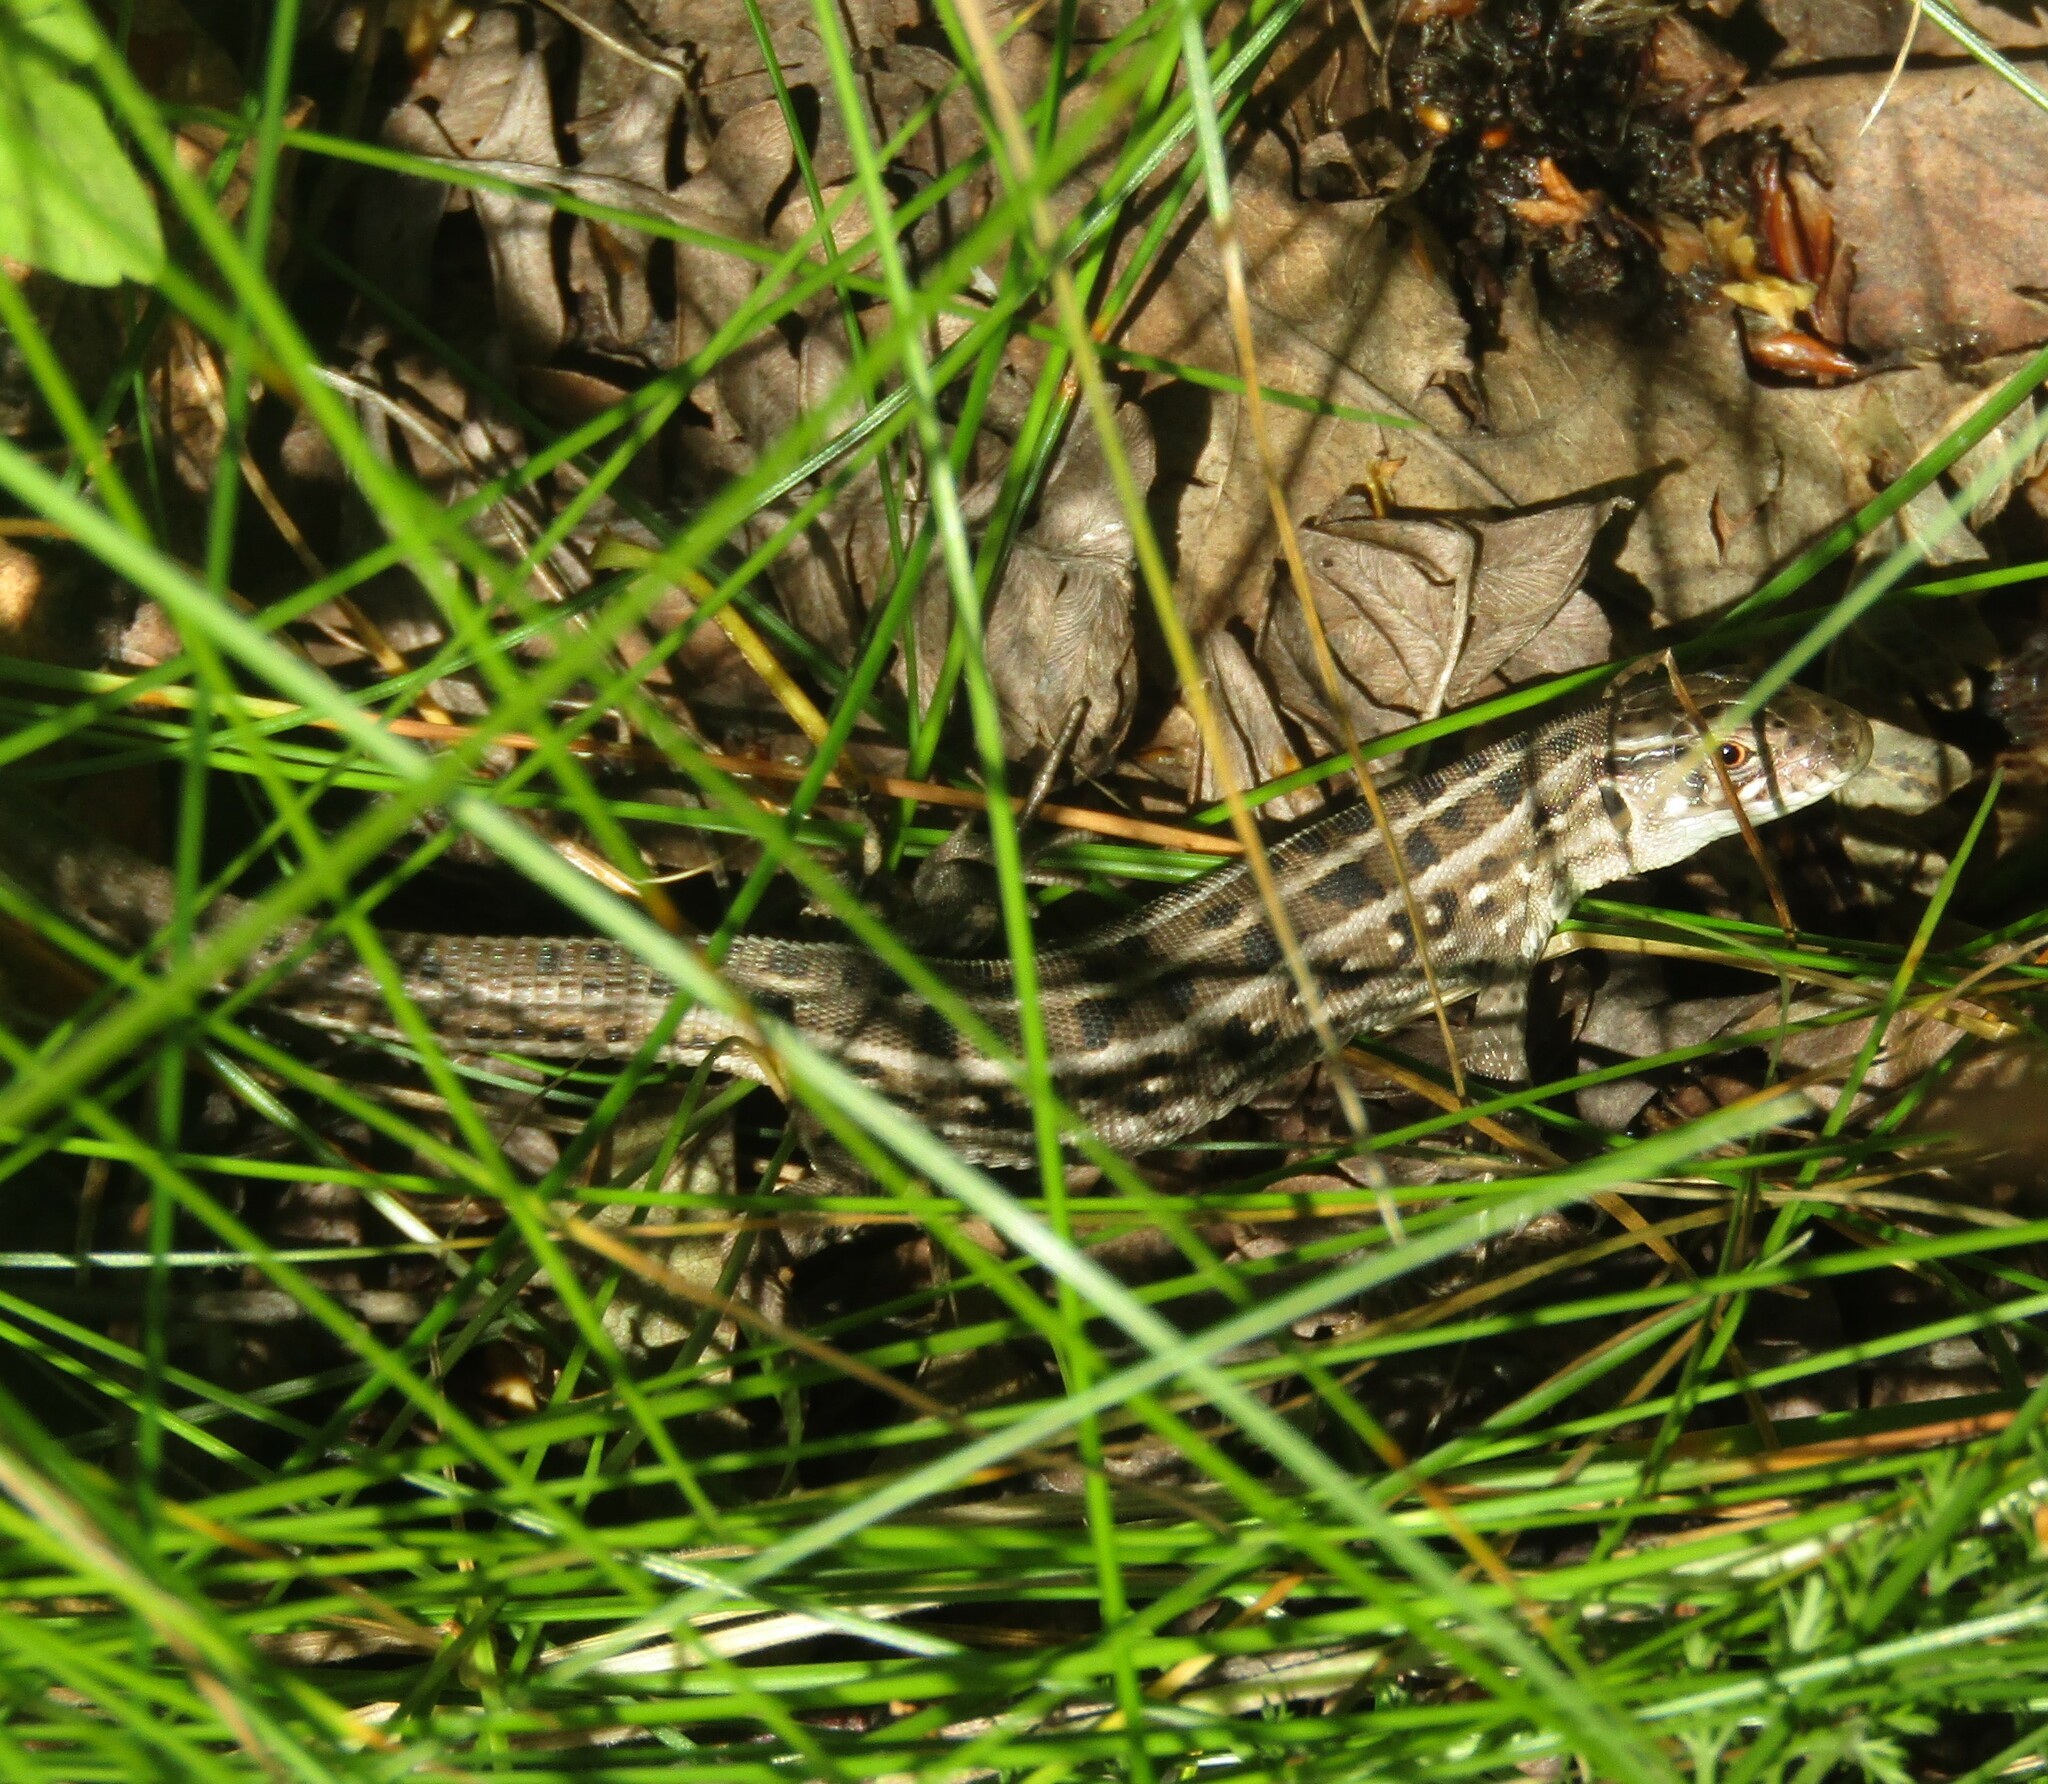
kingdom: Animalia
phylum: Chordata
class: Squamata
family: Lacertidae
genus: Lacerta
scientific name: Lacerta agilis
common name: Sand lizard
